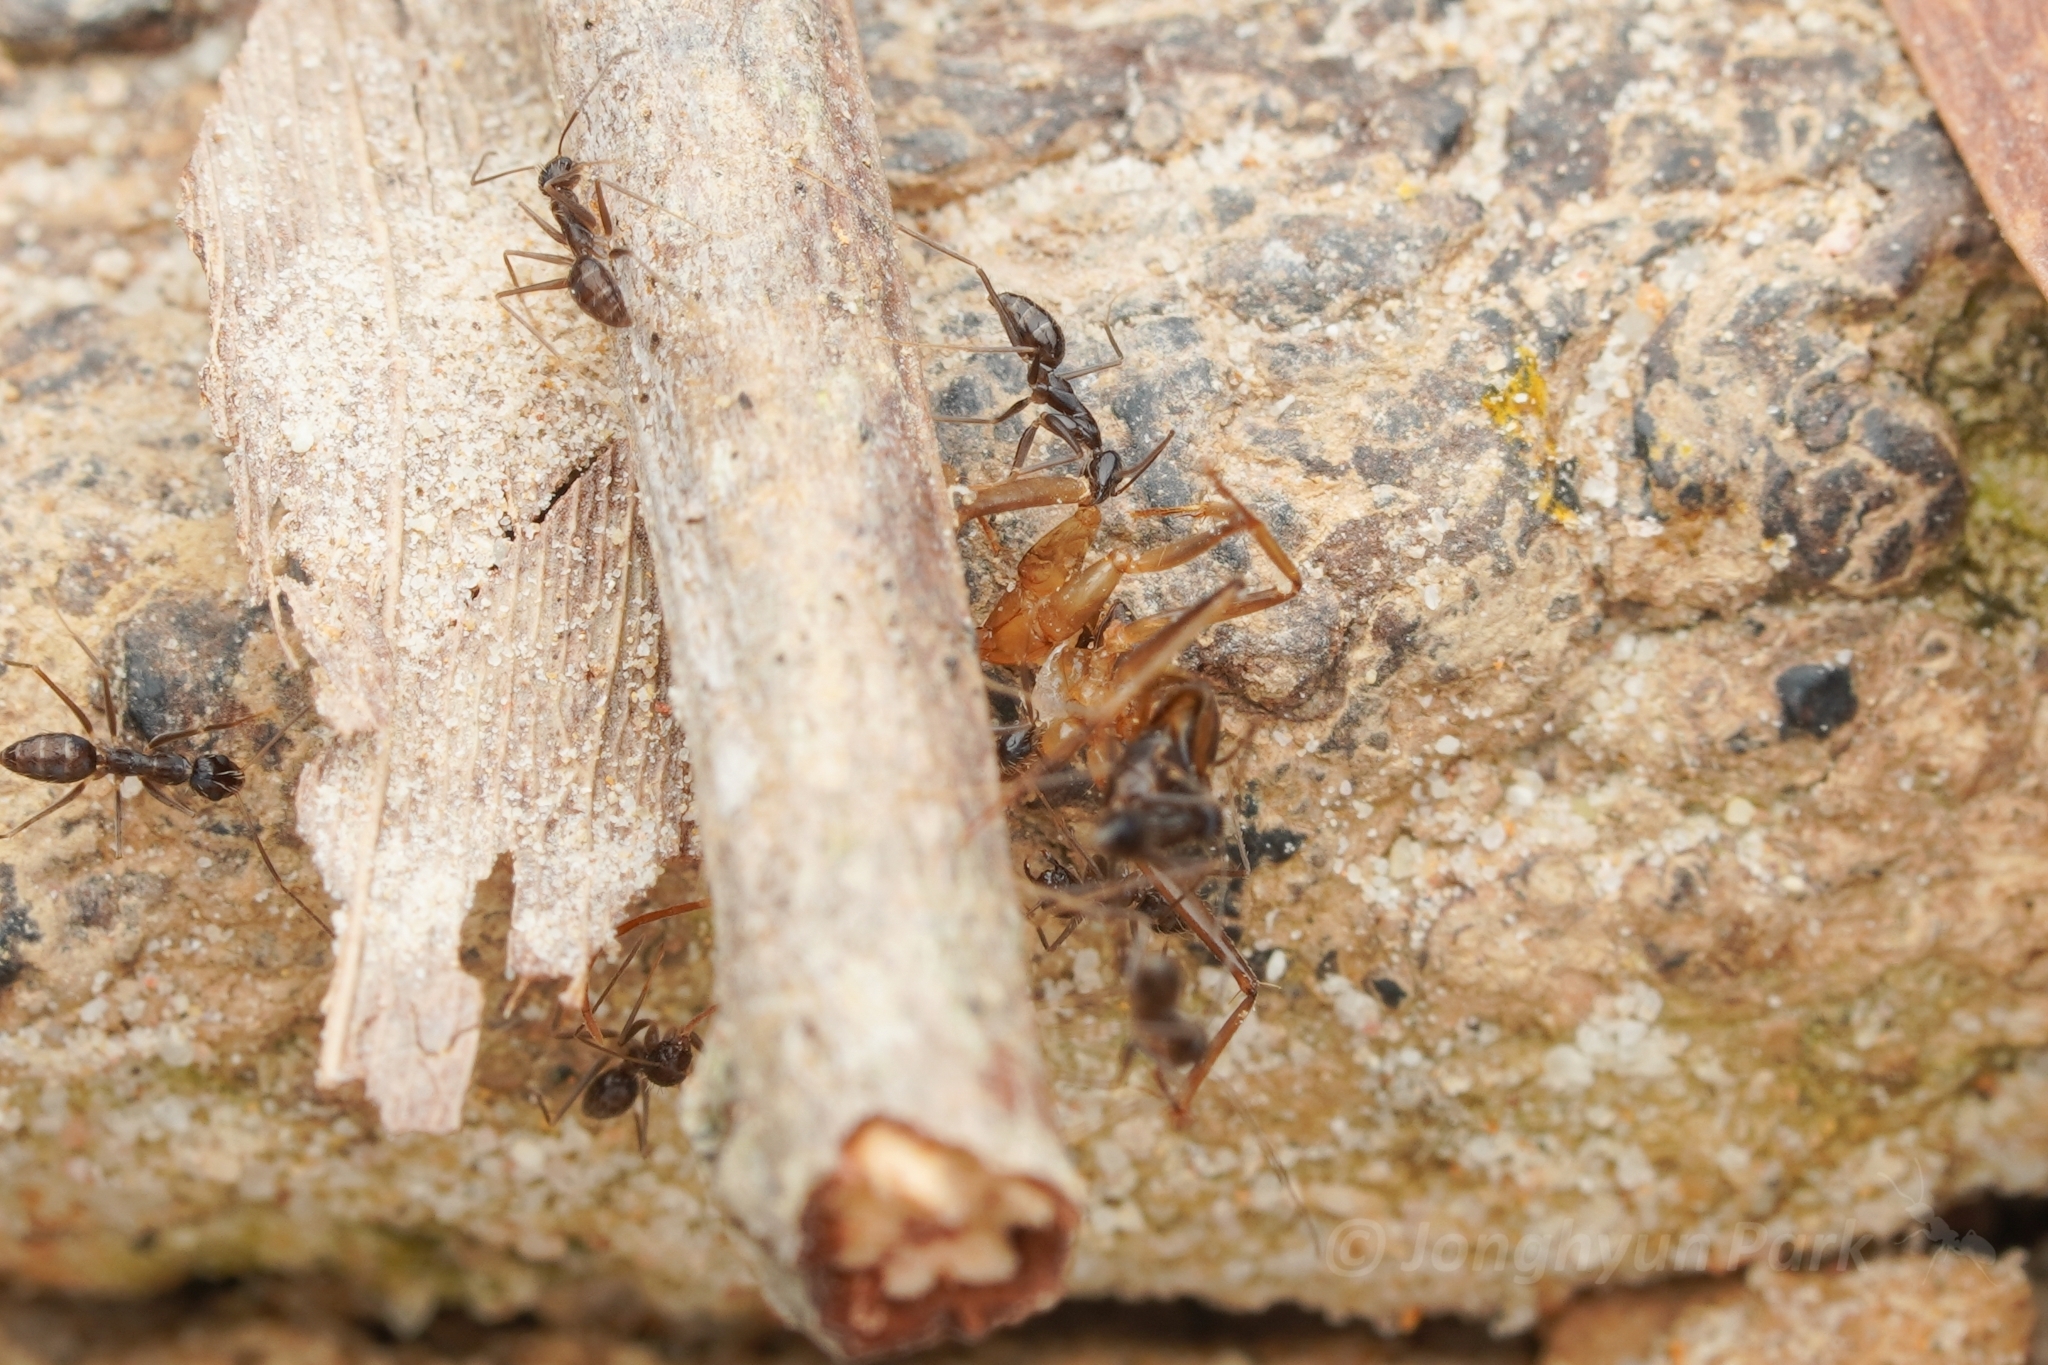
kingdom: Animalia
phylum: Arthropoda
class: Insecta
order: Hymenoptera
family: Formicidae
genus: Paratrechina
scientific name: Paratrechina longicornis
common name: Longhorned crazy ant
